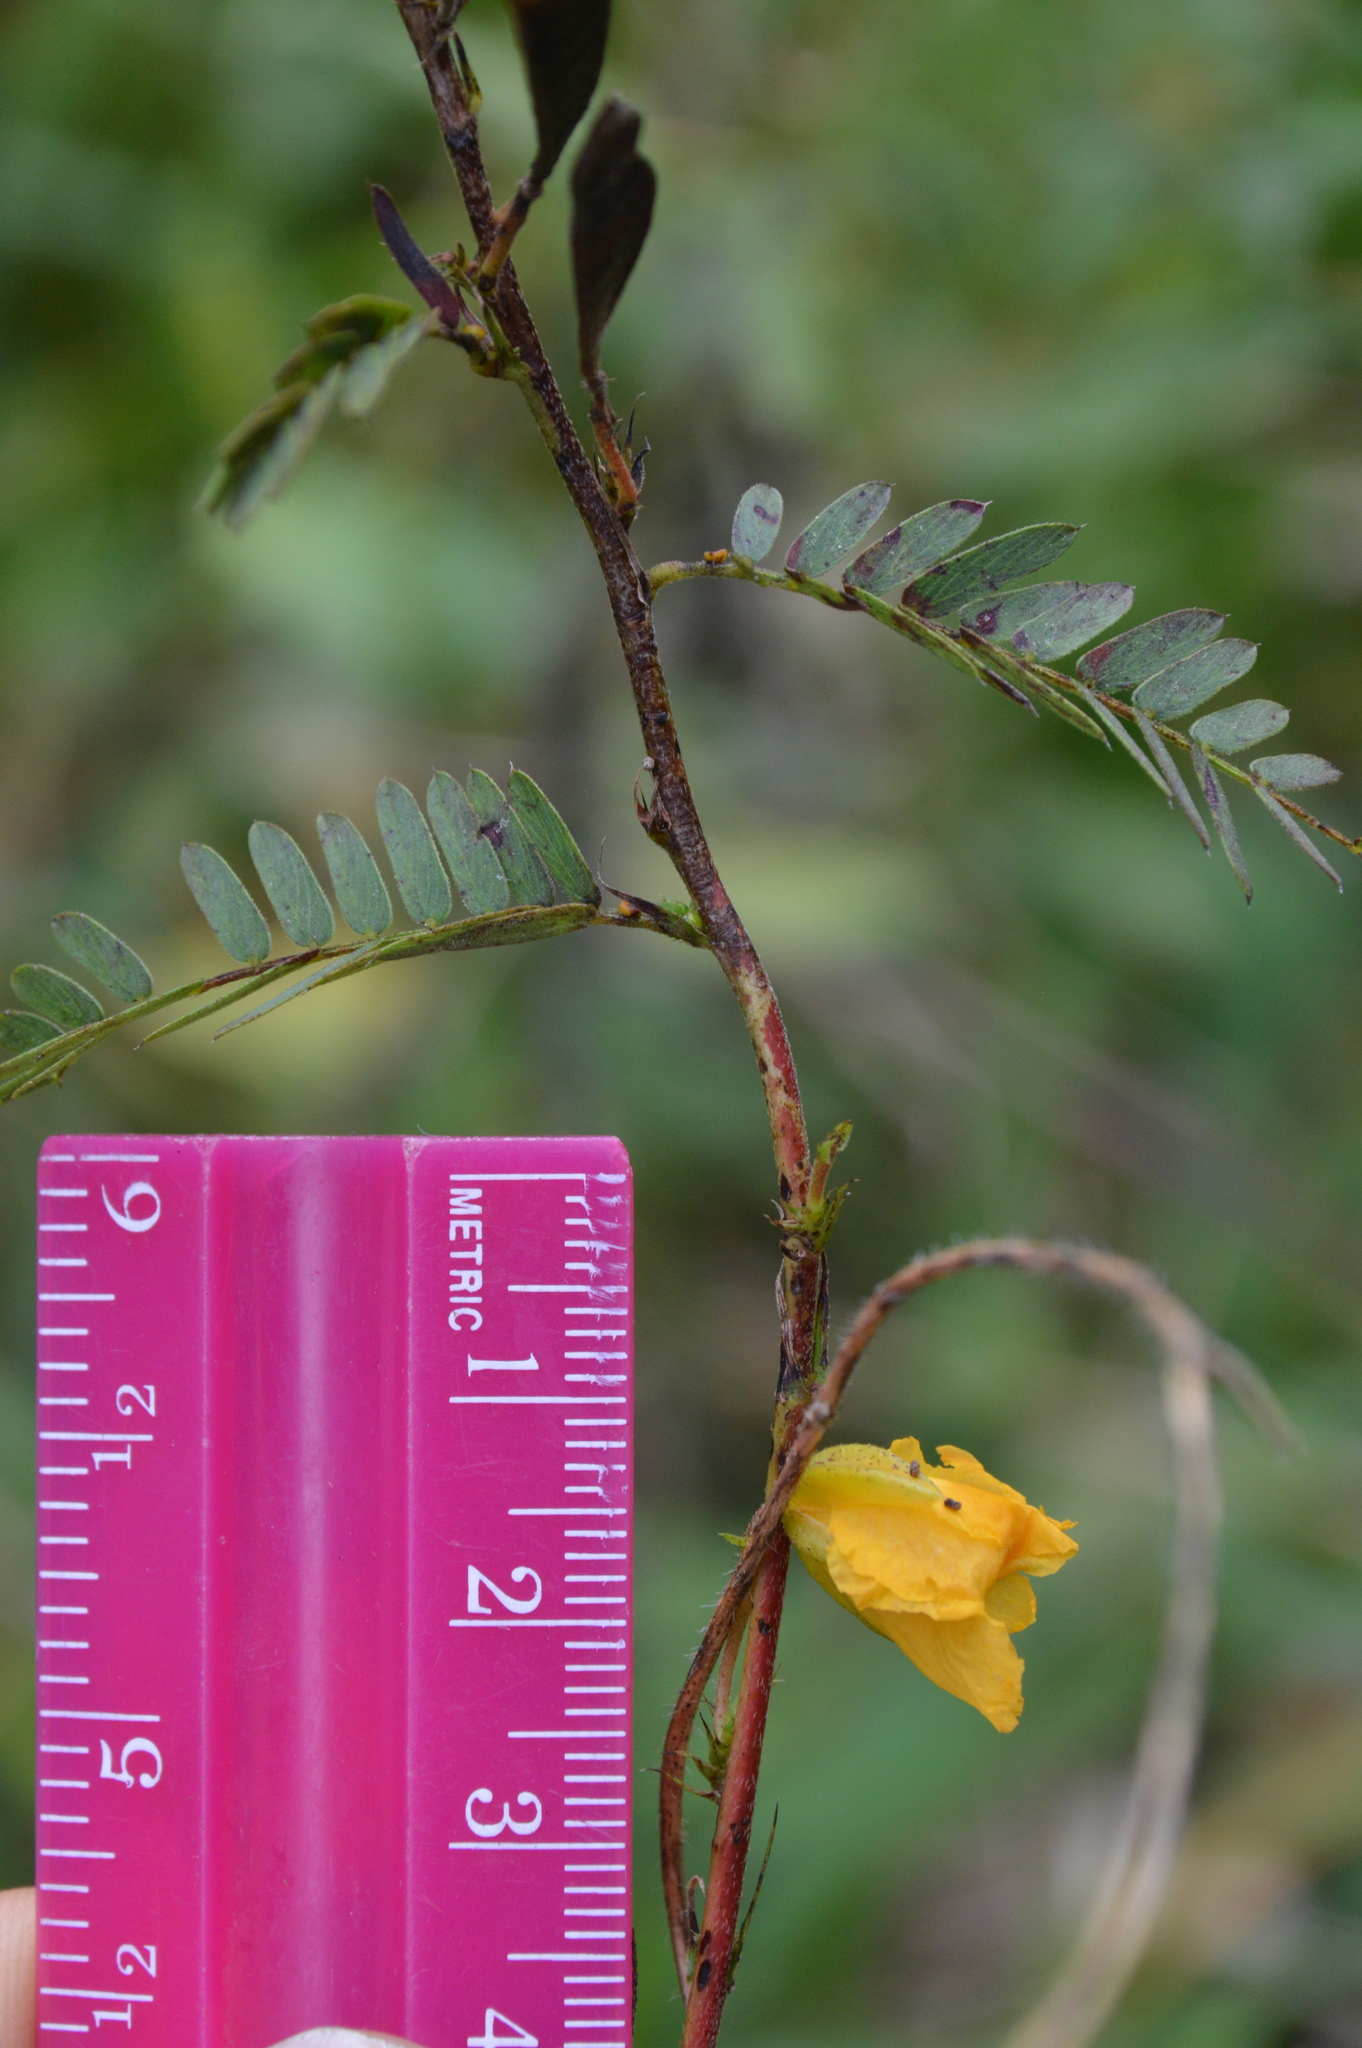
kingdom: Plantae
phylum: Tracheophyta
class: Magnoliopsida
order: Fabales
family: Fabaceae
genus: Chamaecrista
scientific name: Chamaecrista fasciculata
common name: Golden cassia
